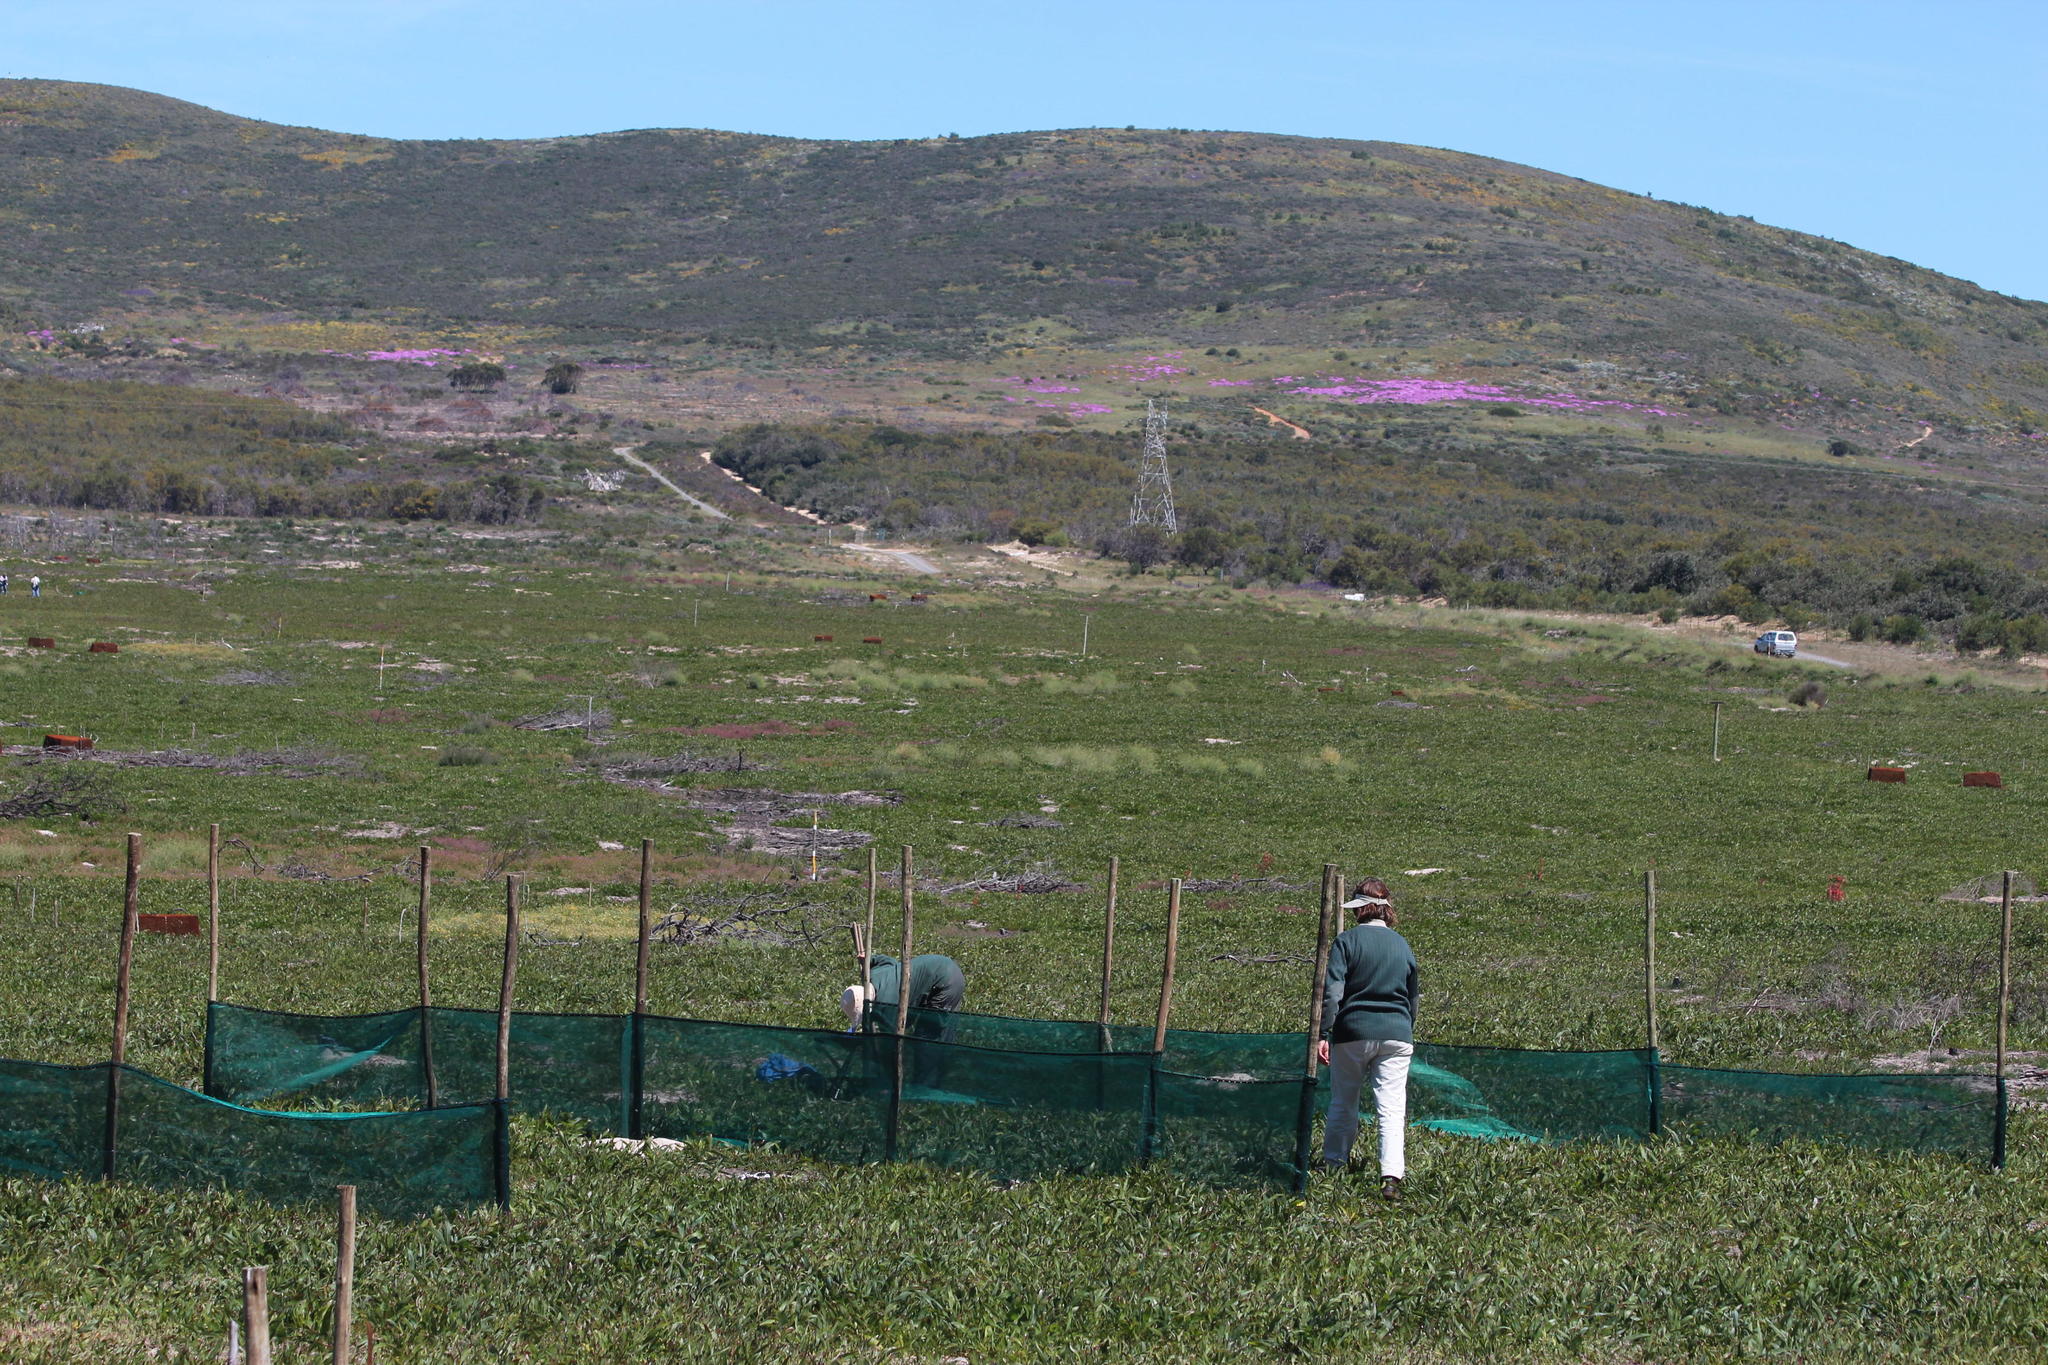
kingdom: Plantae
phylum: Tracheophyta
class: Magnoliopsida
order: Fabales
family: Fabaceae
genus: Acacia
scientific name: Acacia saligna
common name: Orange wattle
